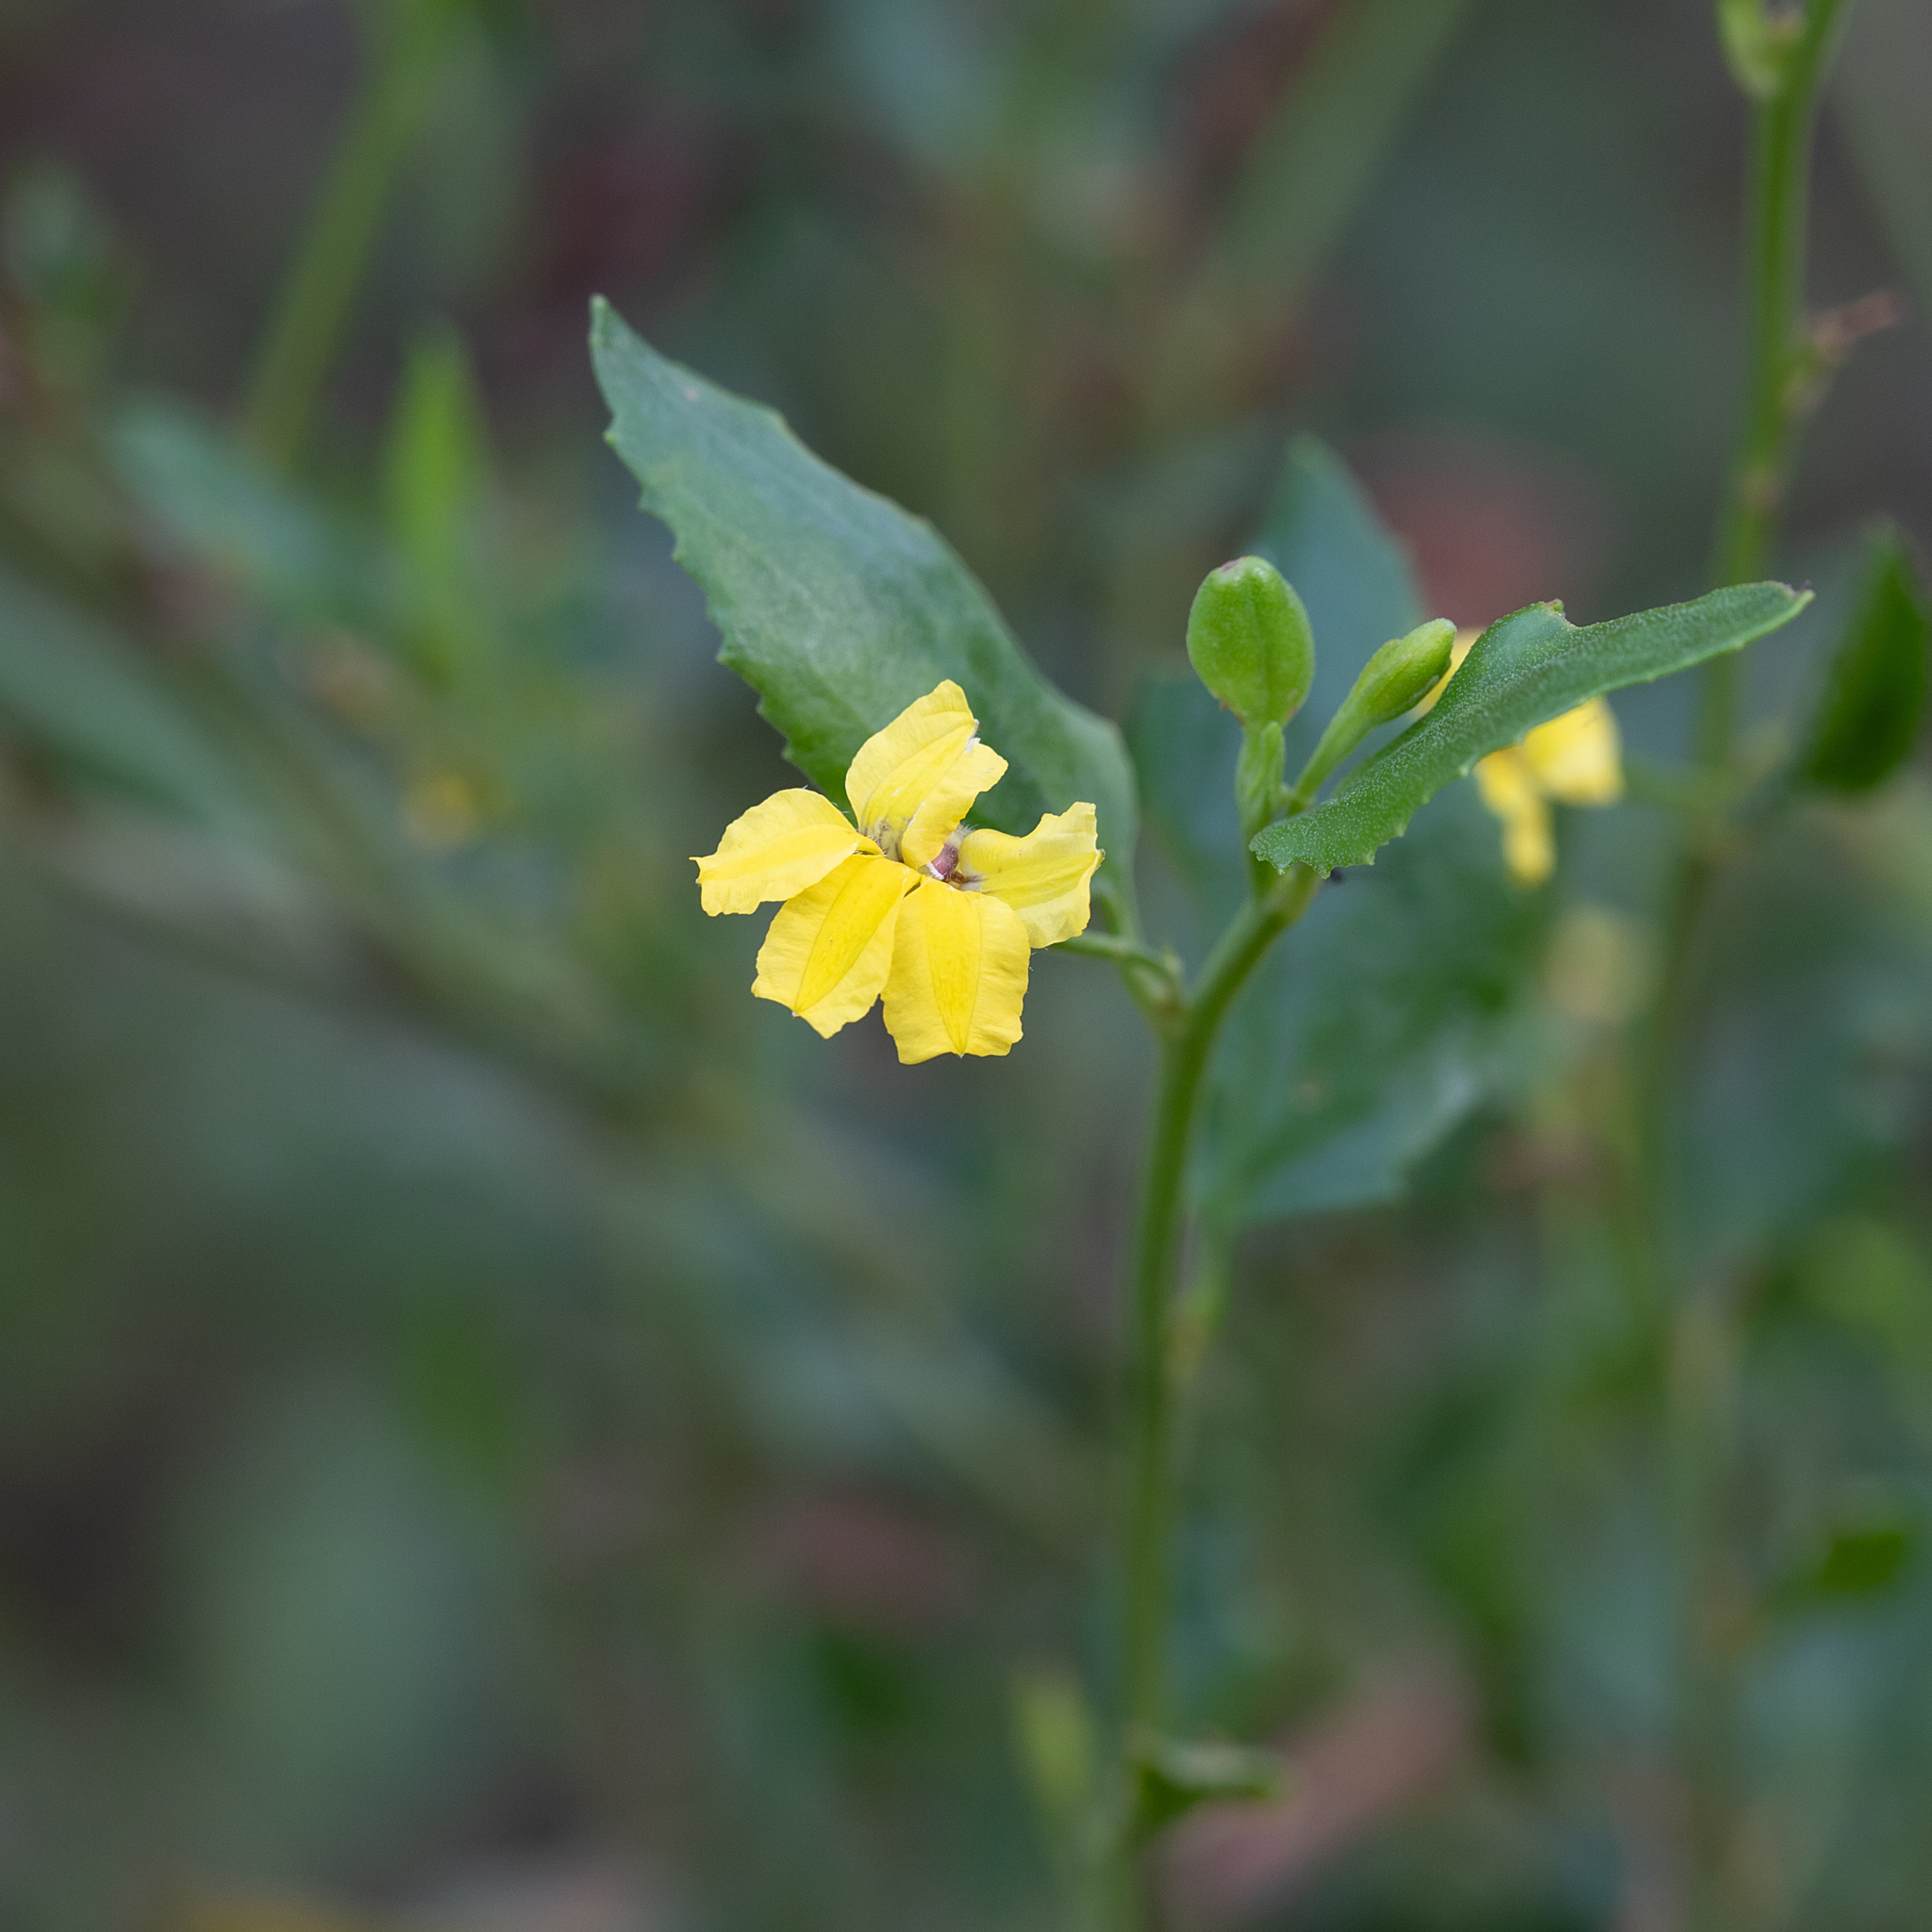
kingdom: Plantae
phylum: Tracheophyta
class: Magnoliopsida
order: Asterales
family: Goodeniaceae
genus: Goodenia
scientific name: Goodenia ovata
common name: Hop goodenia
